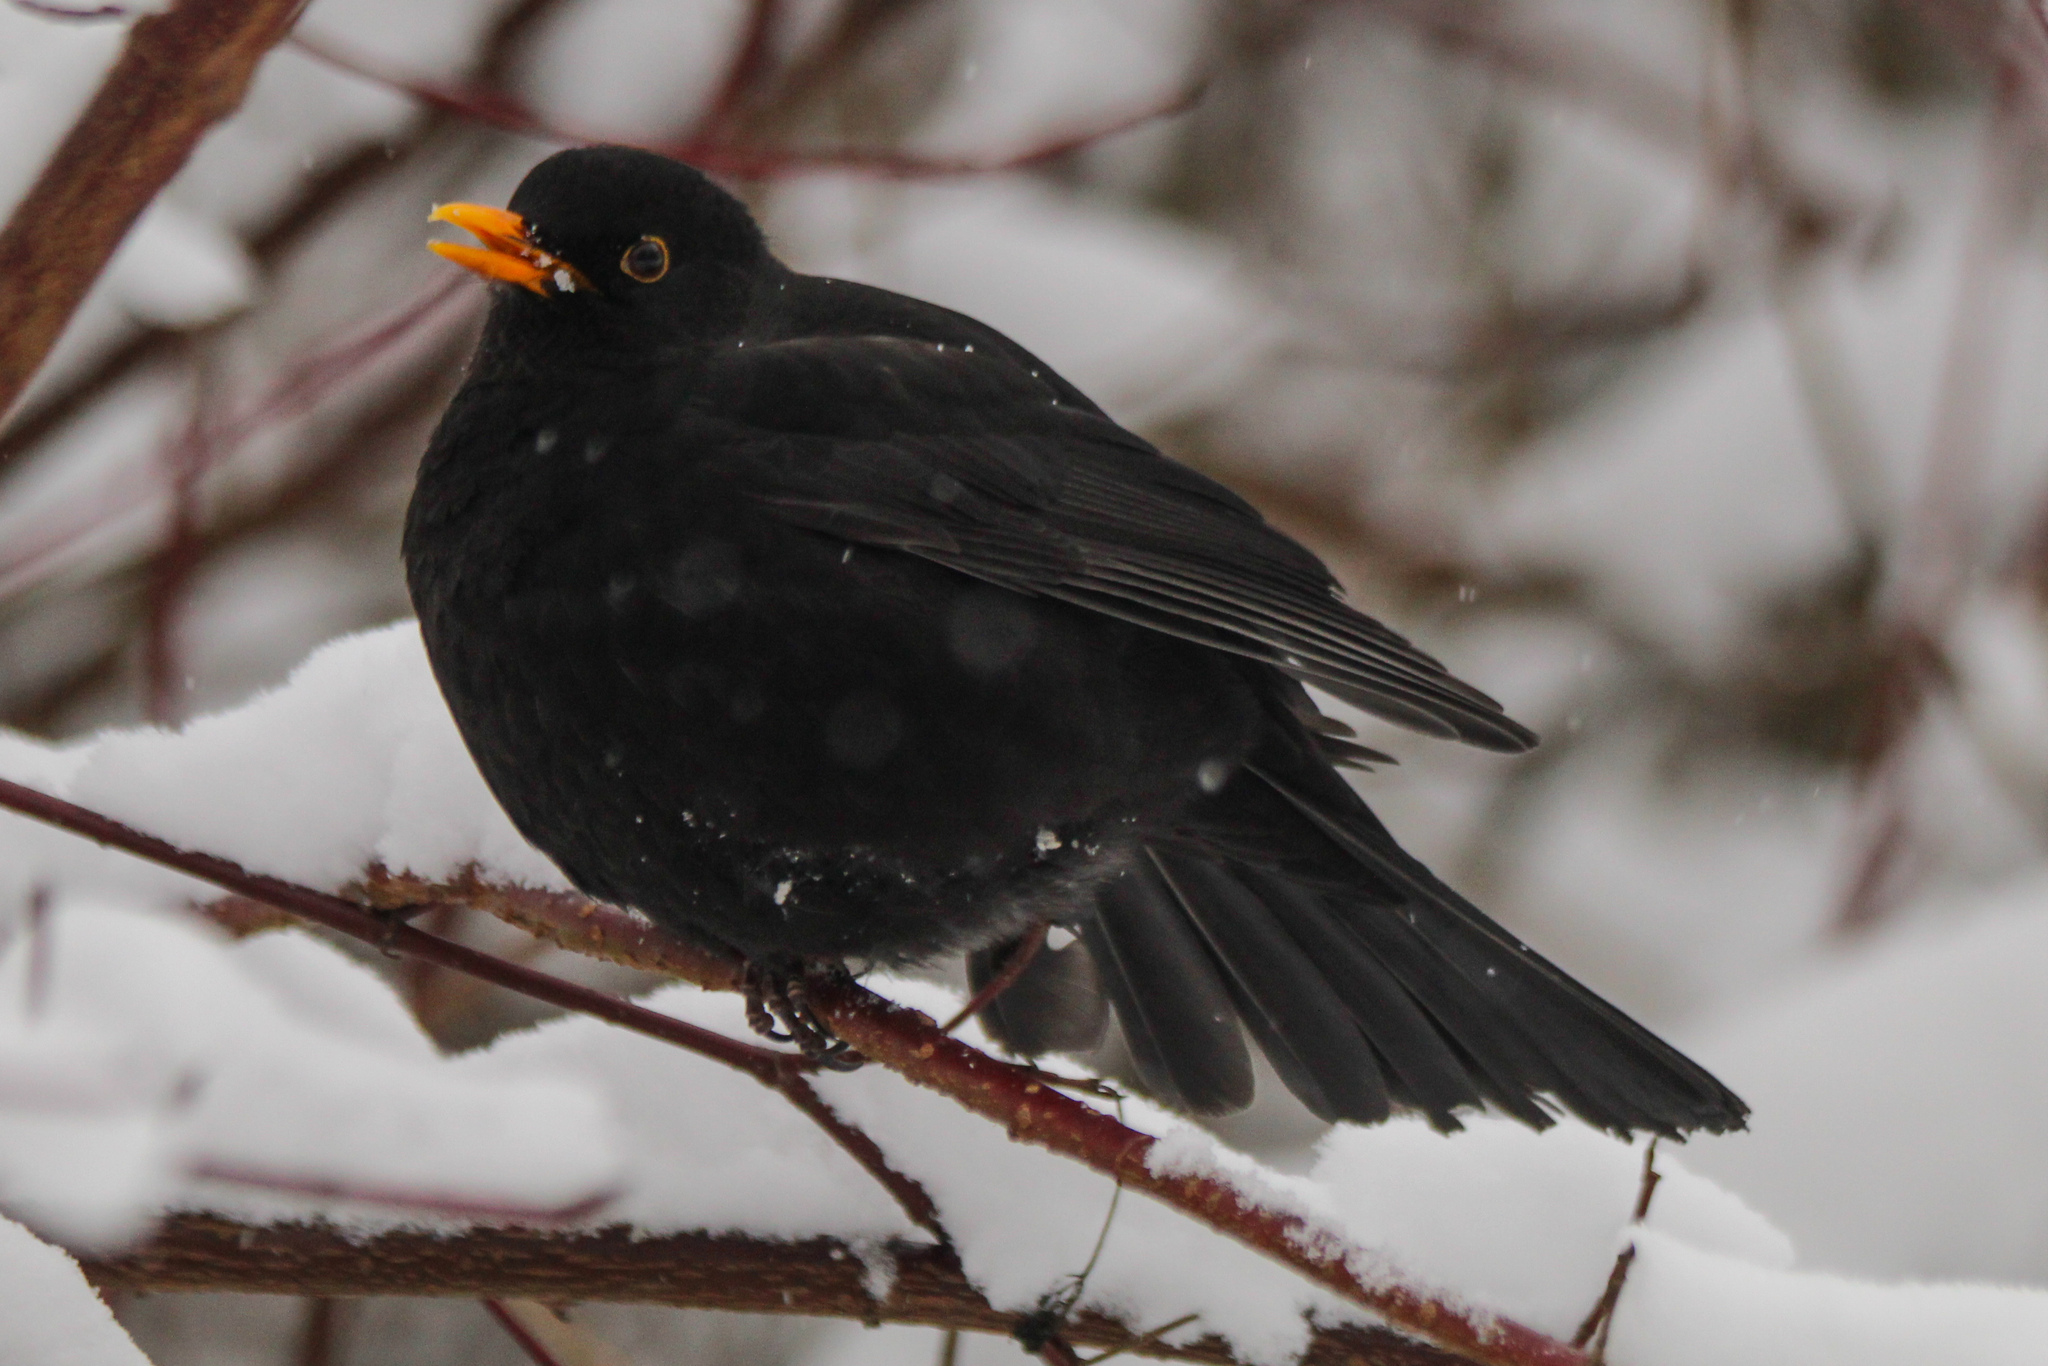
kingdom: Animalia
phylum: Chordata
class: Aves
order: Passeriformes
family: Turdidae
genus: Turdus
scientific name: Turdus merula
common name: Common blackbird
